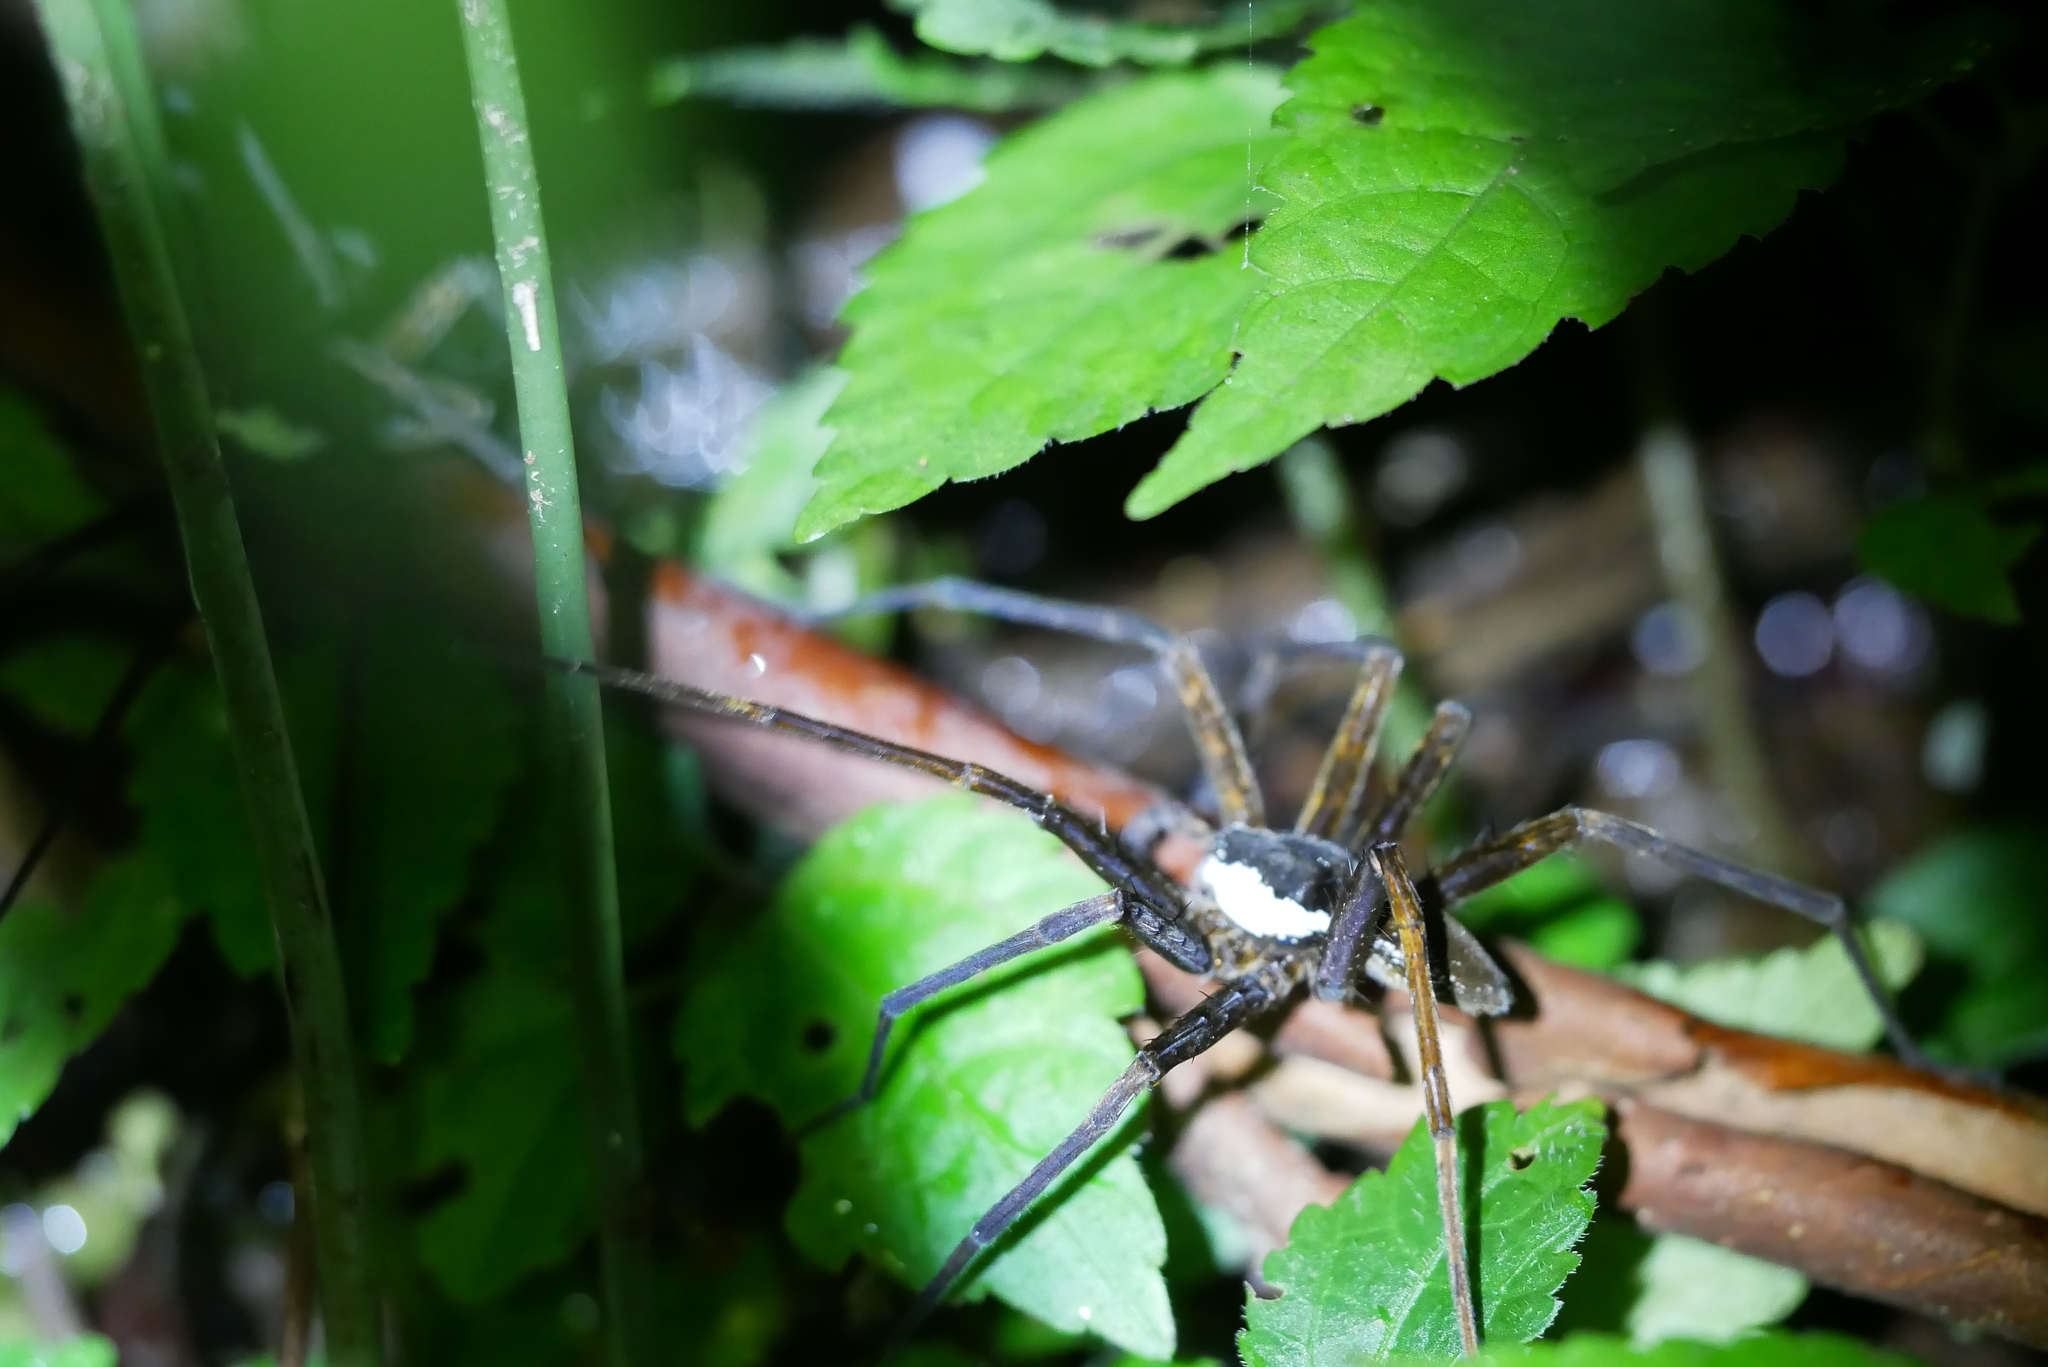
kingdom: Animalia
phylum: Arthropoda
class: Arachnida
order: Araneae
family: Pisauridae
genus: Dolomedes
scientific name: Dolomedes raptor
